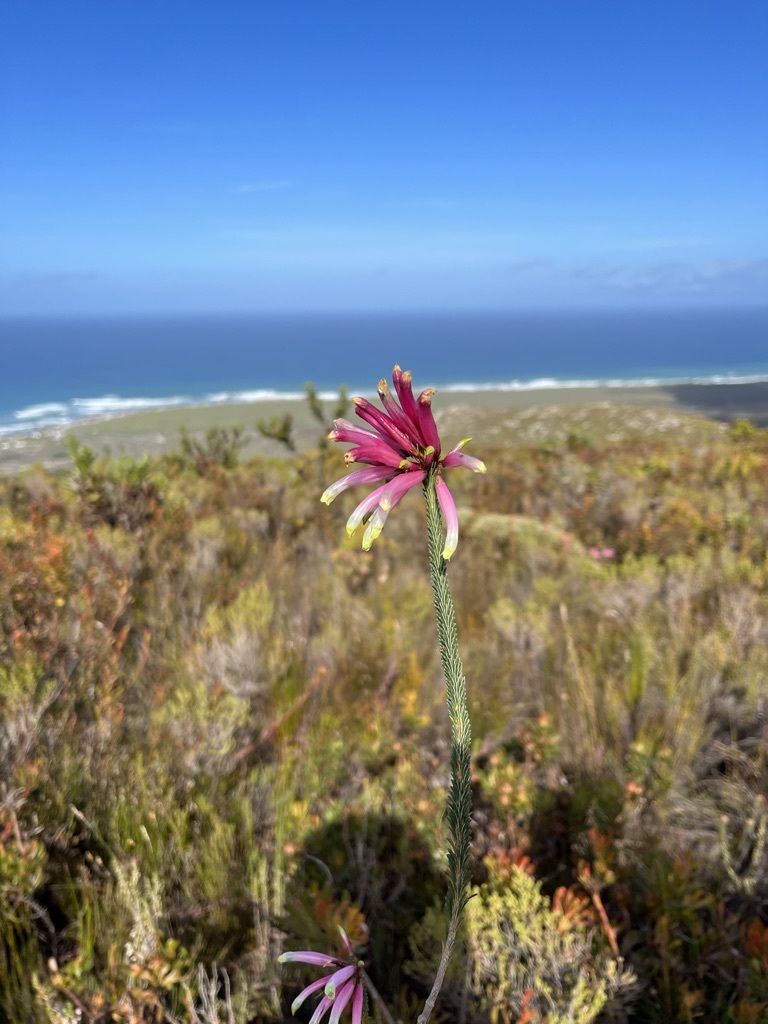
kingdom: Plantae
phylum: Tracheophyta
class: Magnoliopsida
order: Ericales
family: Ericaceae
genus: Erica
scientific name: Erica fascicularis
